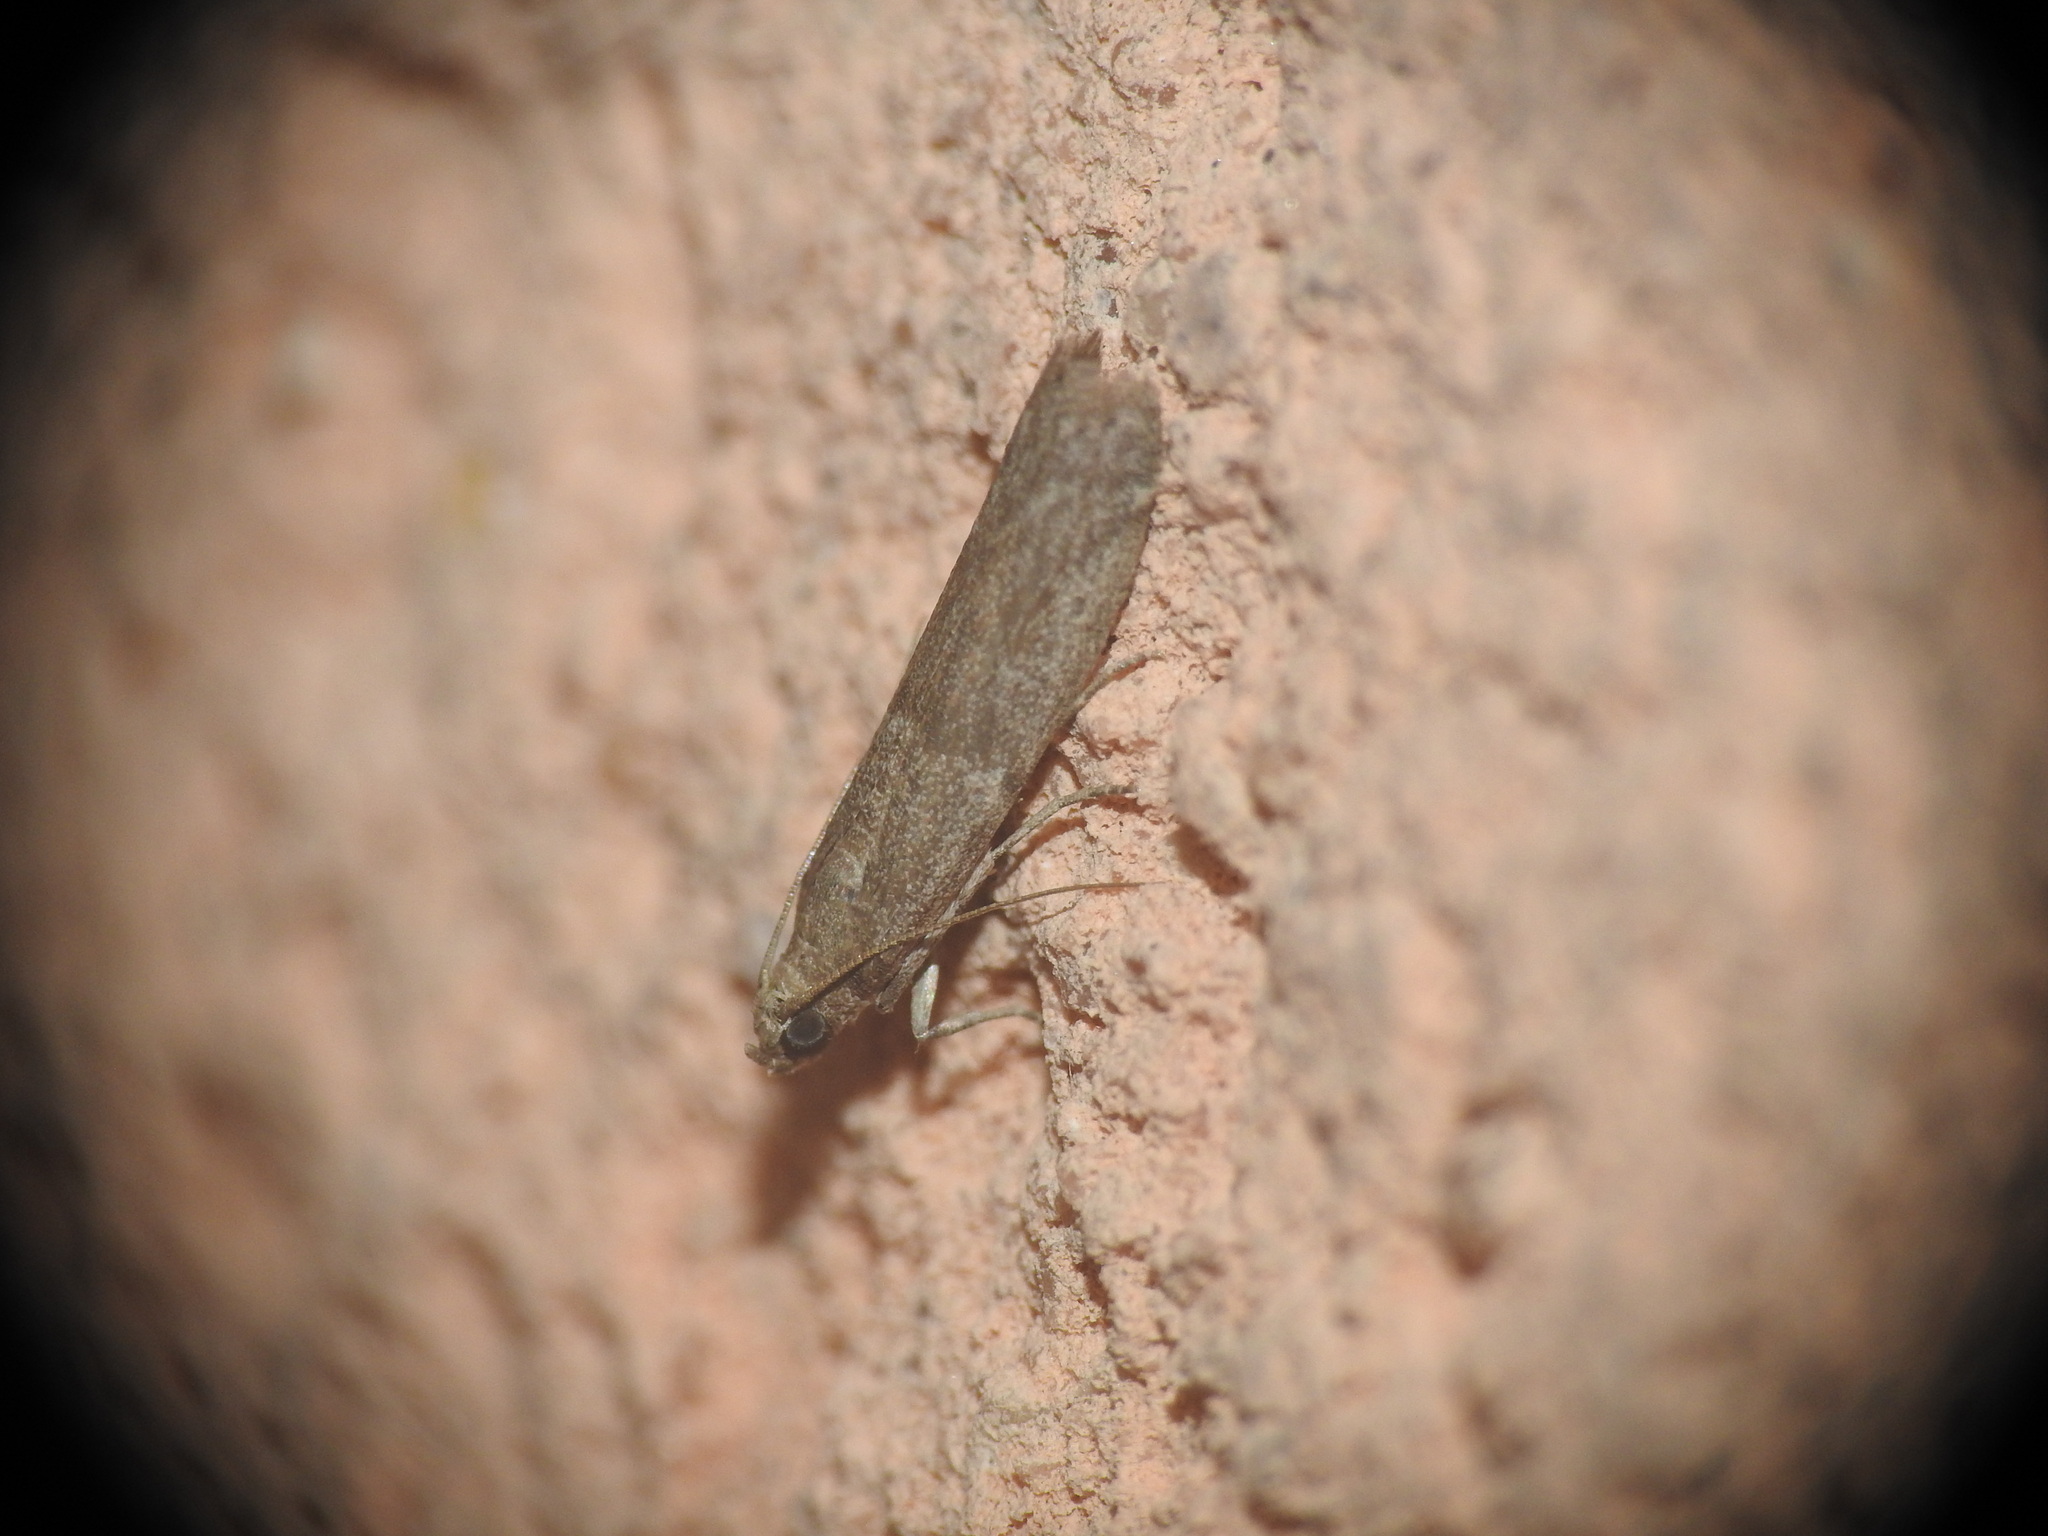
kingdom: Animalia
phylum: Arthropoda
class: Insecta
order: Lepidoptera
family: Pyralidae
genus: Ectomyelois
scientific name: Ectomyelois ceratoniae
